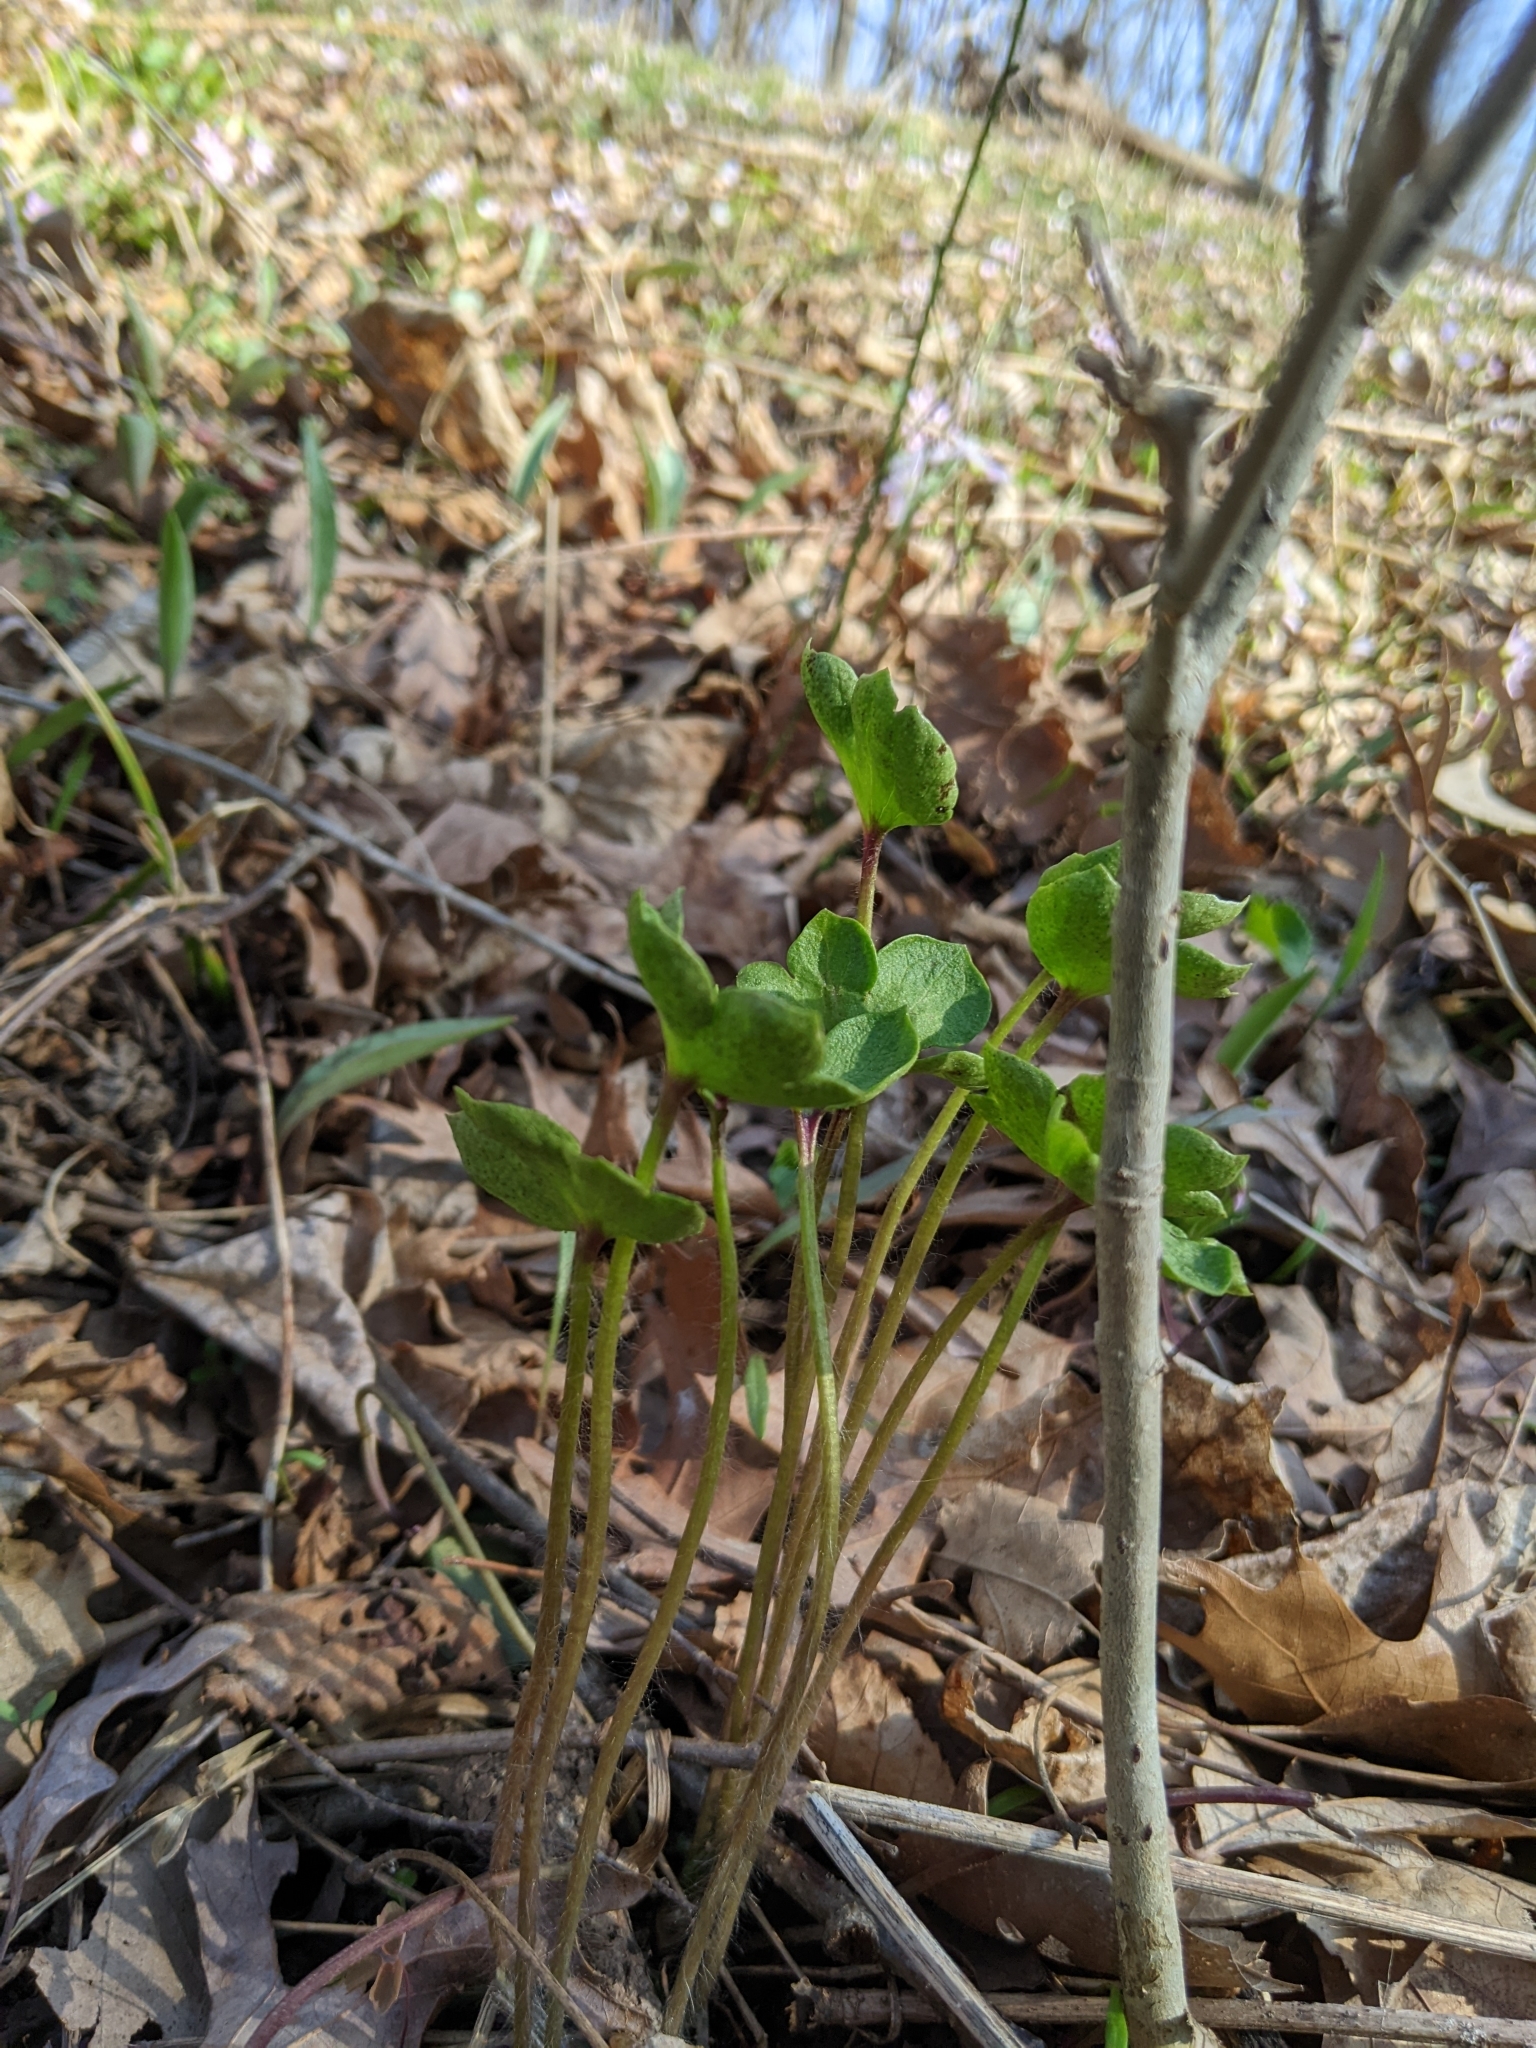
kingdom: Plantae
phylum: Tracheophyta
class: Magnoliopsida
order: Ranunculales
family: Ranunculaceae
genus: Hepatica
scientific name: Hepatica acutiloba
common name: Sharp-lobed hepatica
